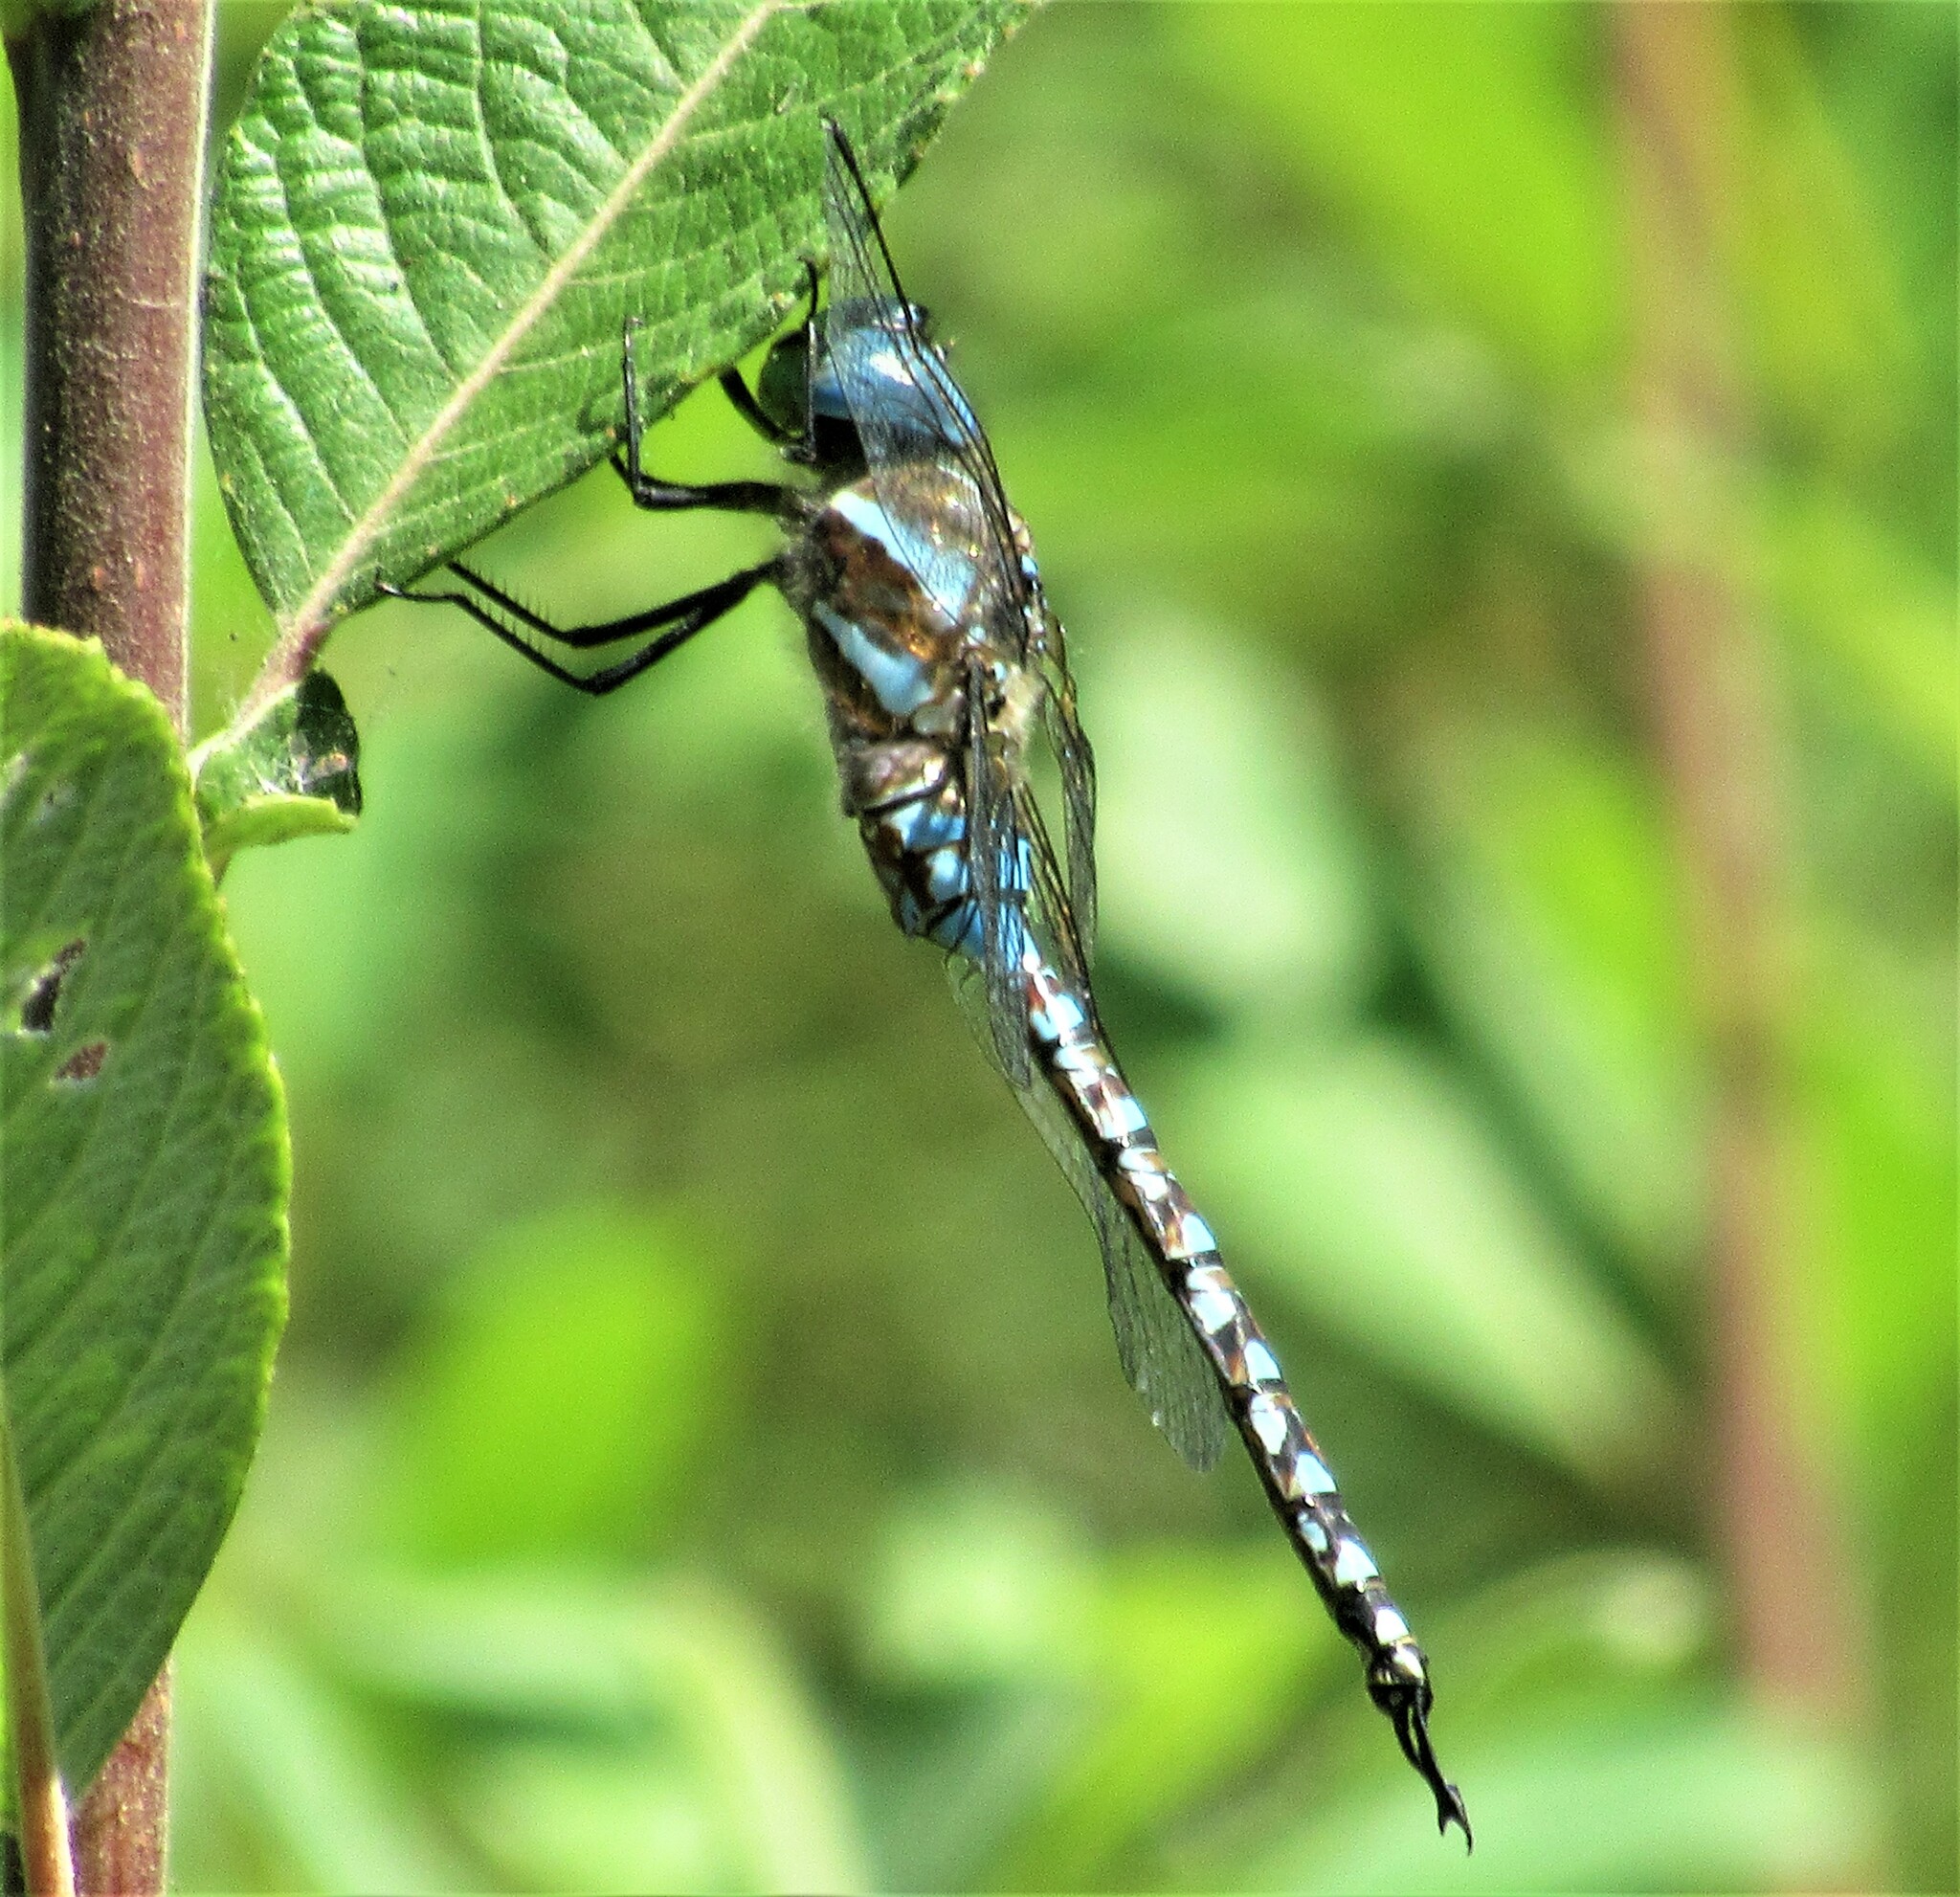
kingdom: Animalia
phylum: Arthropoda
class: Insecta
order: Odonata
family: Aeshnidae
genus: Rhionaeschna
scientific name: Rhionaeschna multicolor
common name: Blue-eyed darner
